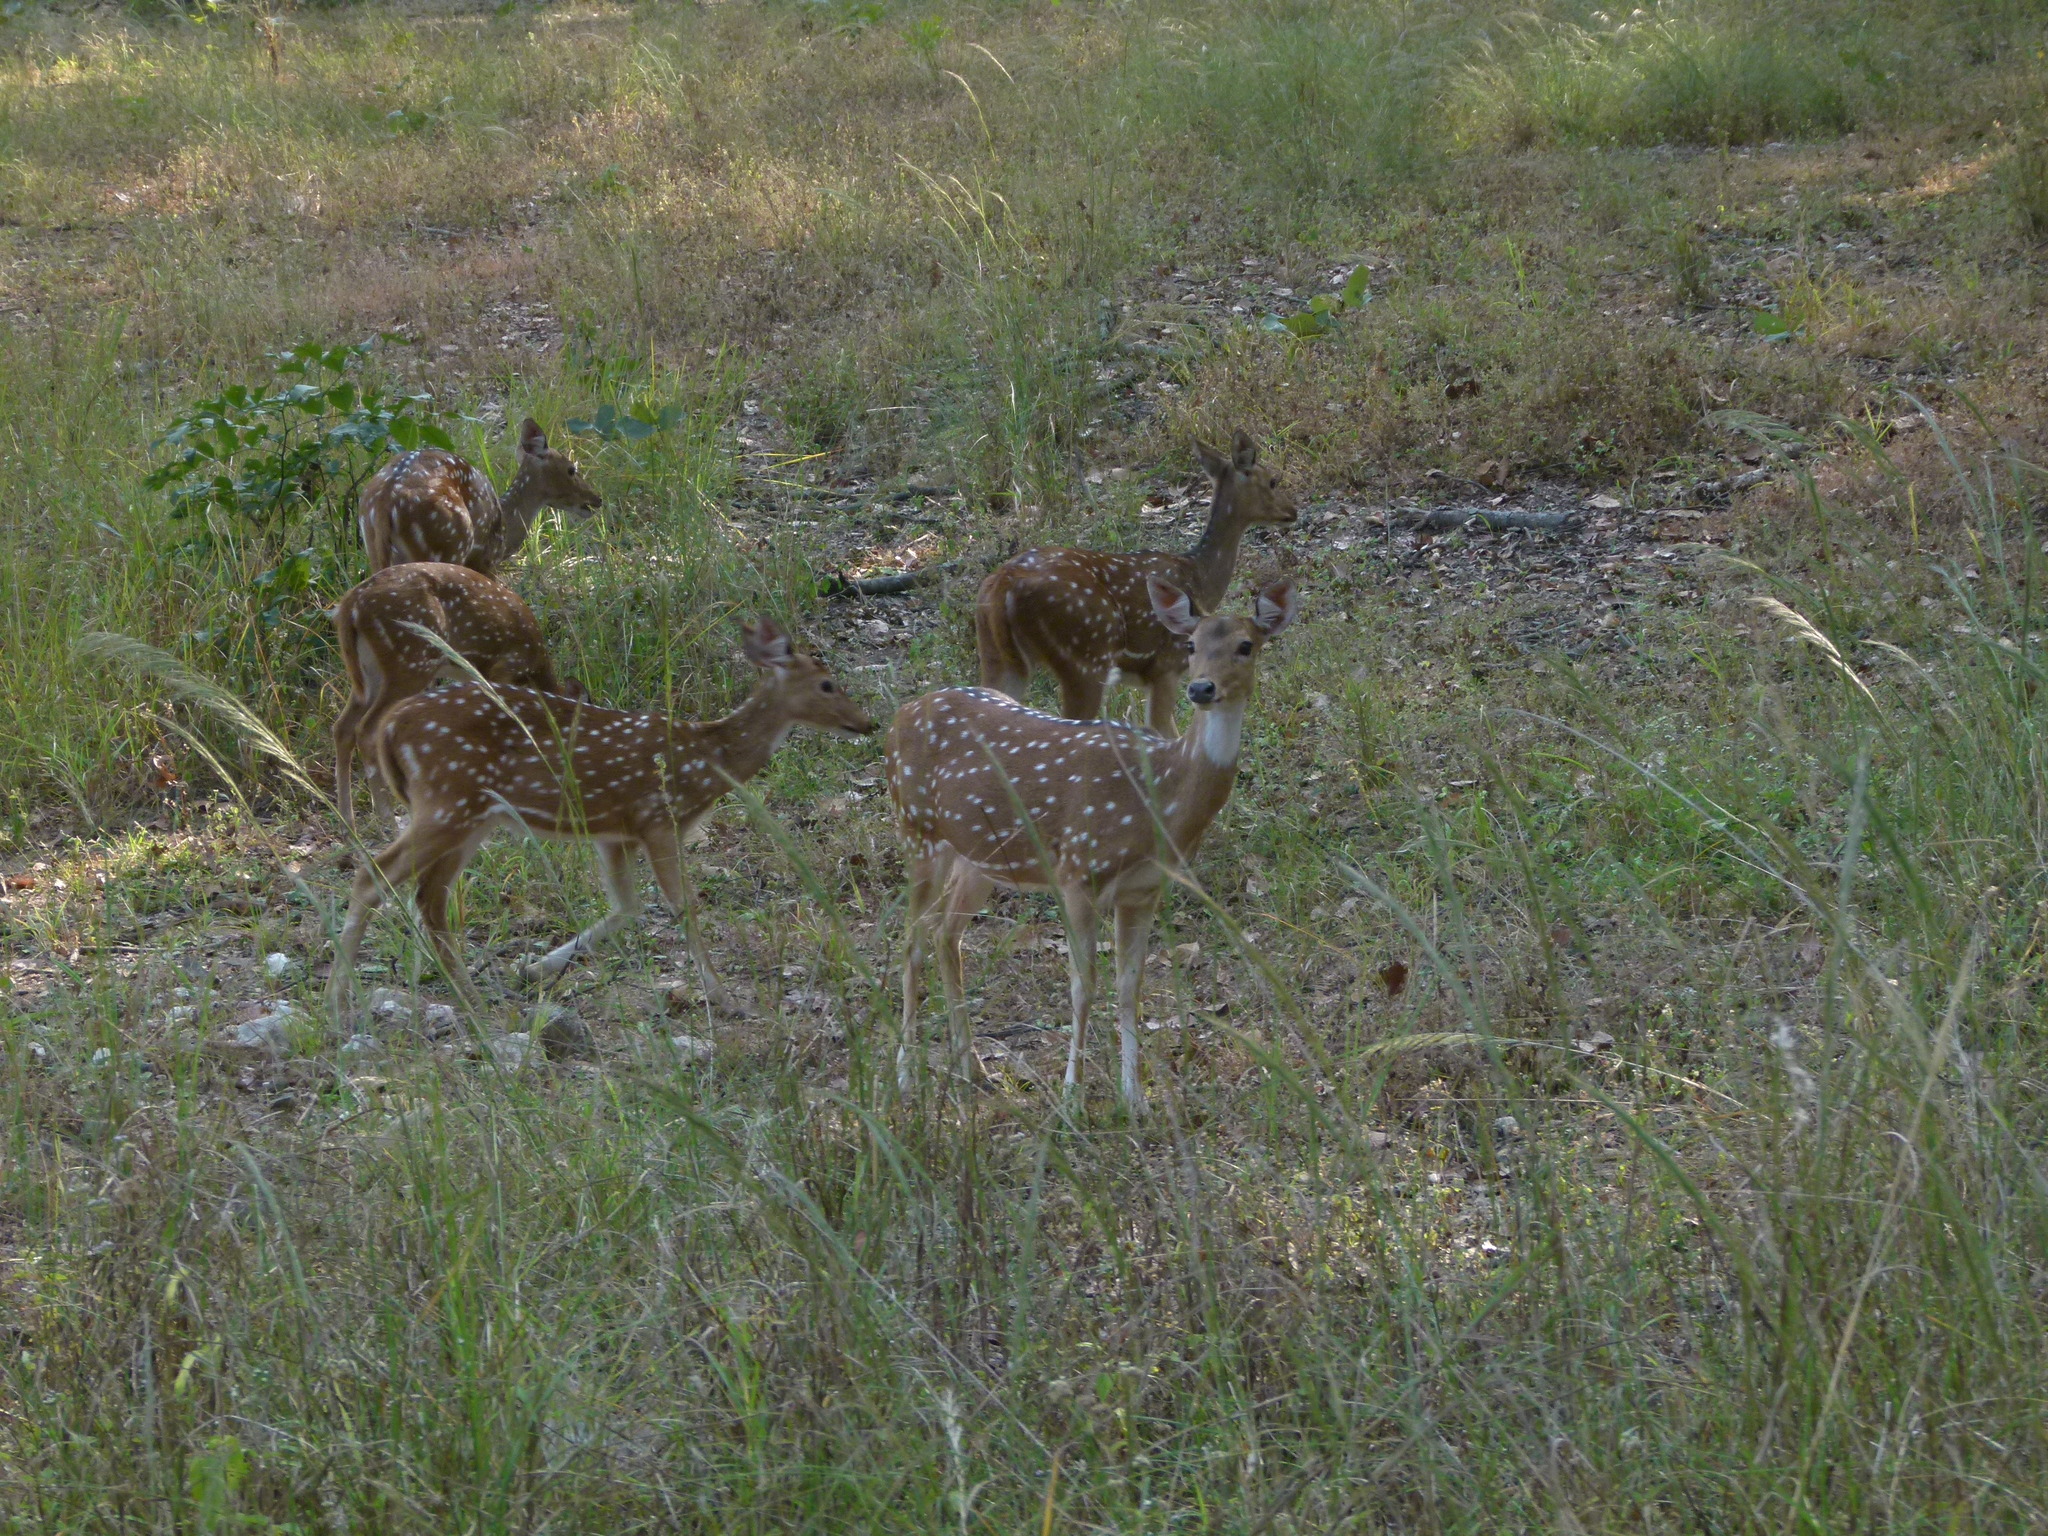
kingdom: Animalia
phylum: Chordata
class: Mammalia
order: Artiodactyla
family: Cervidae
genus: Axis
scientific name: Axis axis
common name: Chital
